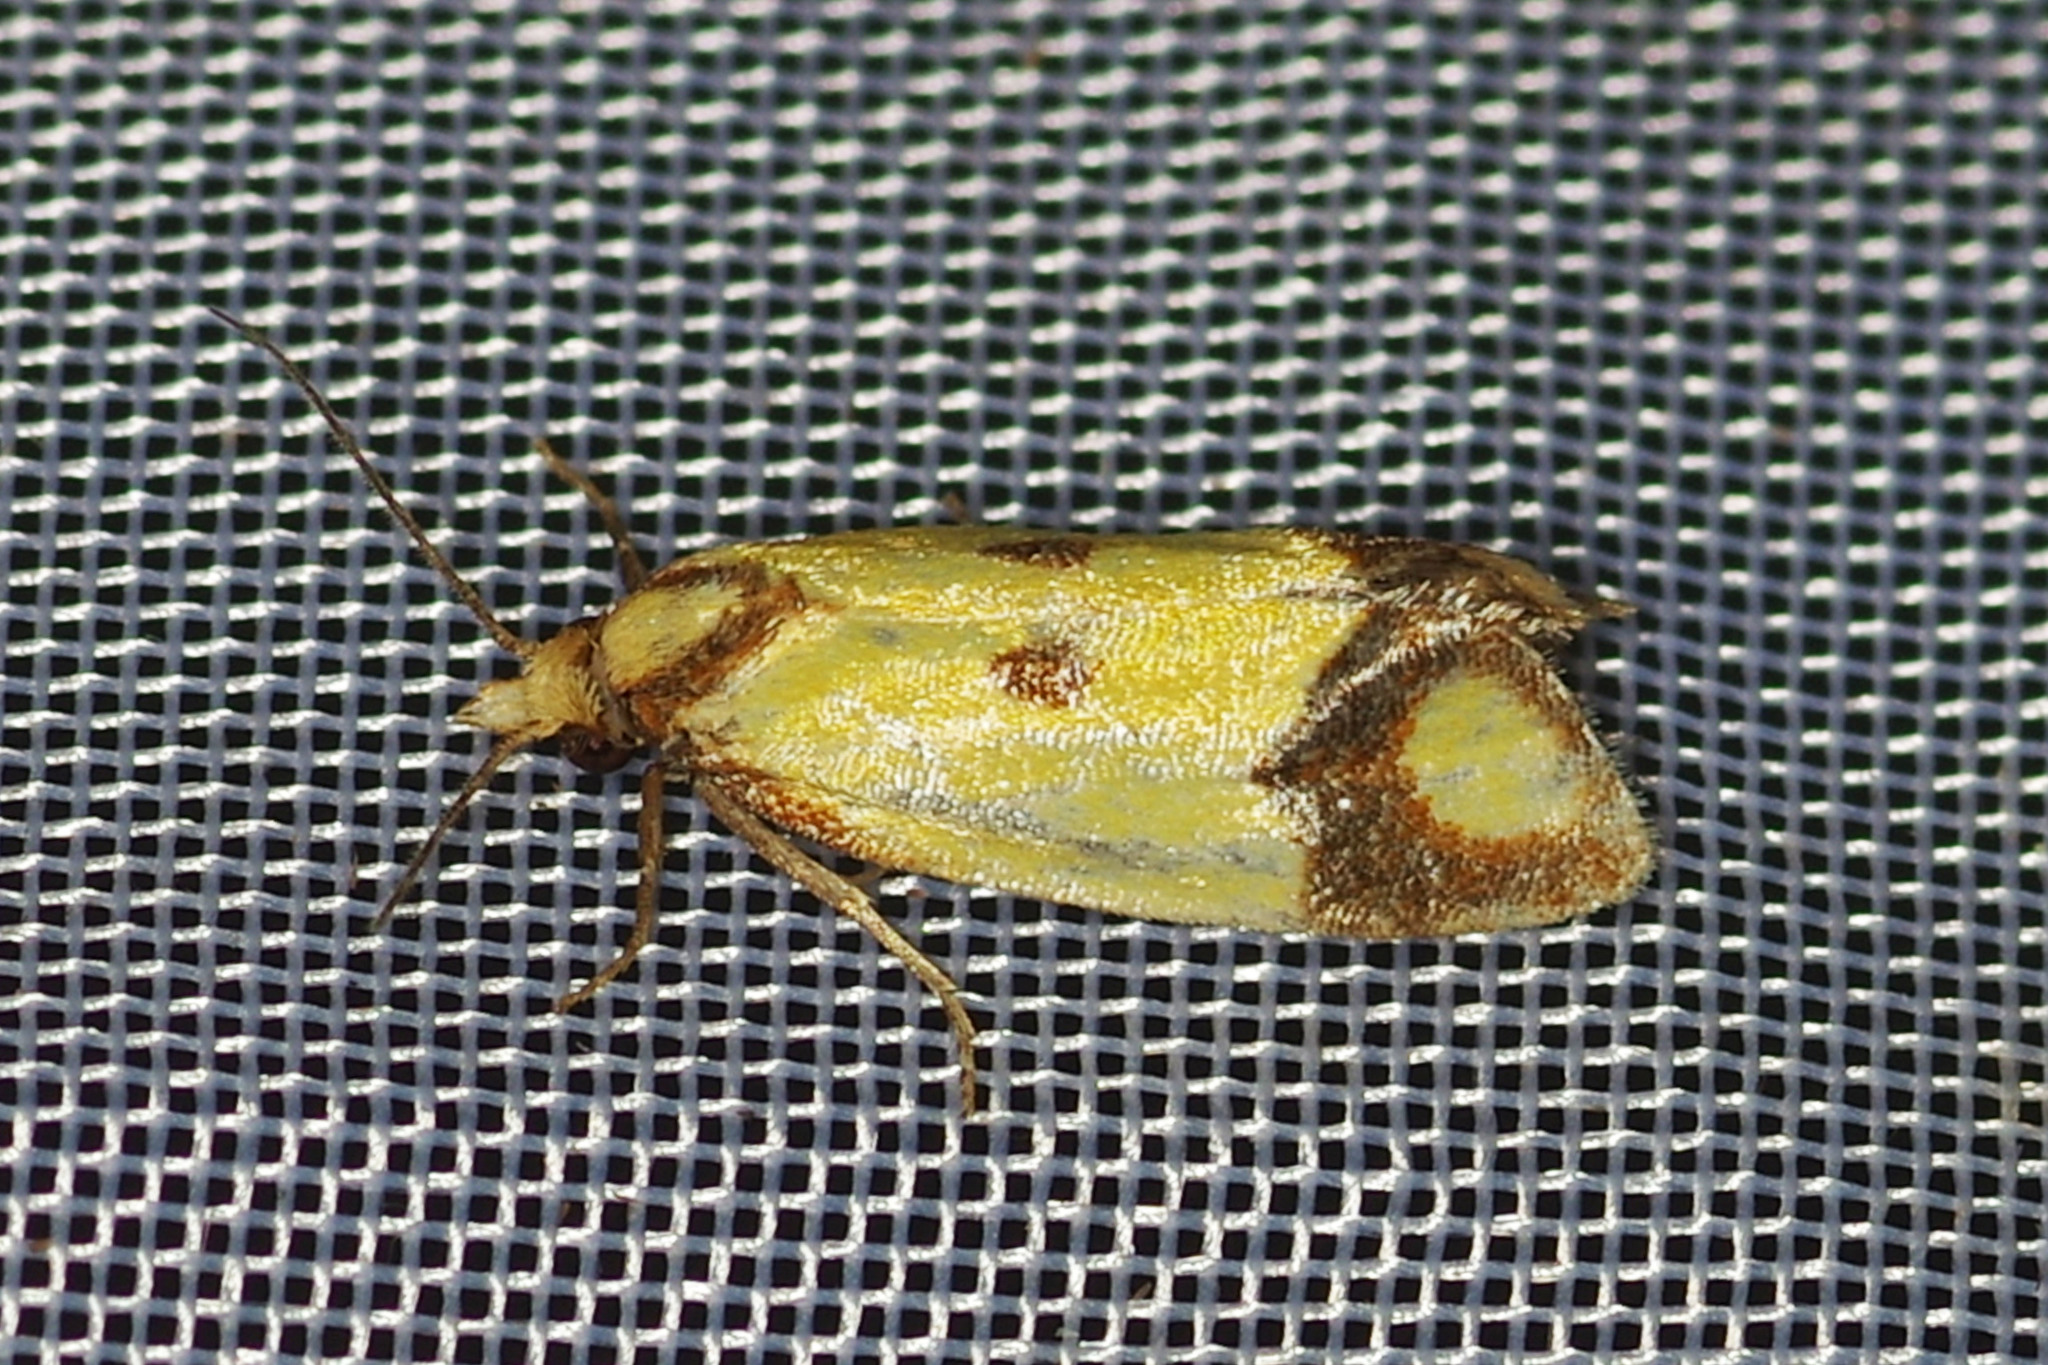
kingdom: Animalia
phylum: Arthropoda
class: Insecta
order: Lepidoptera
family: Tortricidae
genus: Agapeta
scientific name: Agapeta zoegana
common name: Sulfur knapweed root moth
